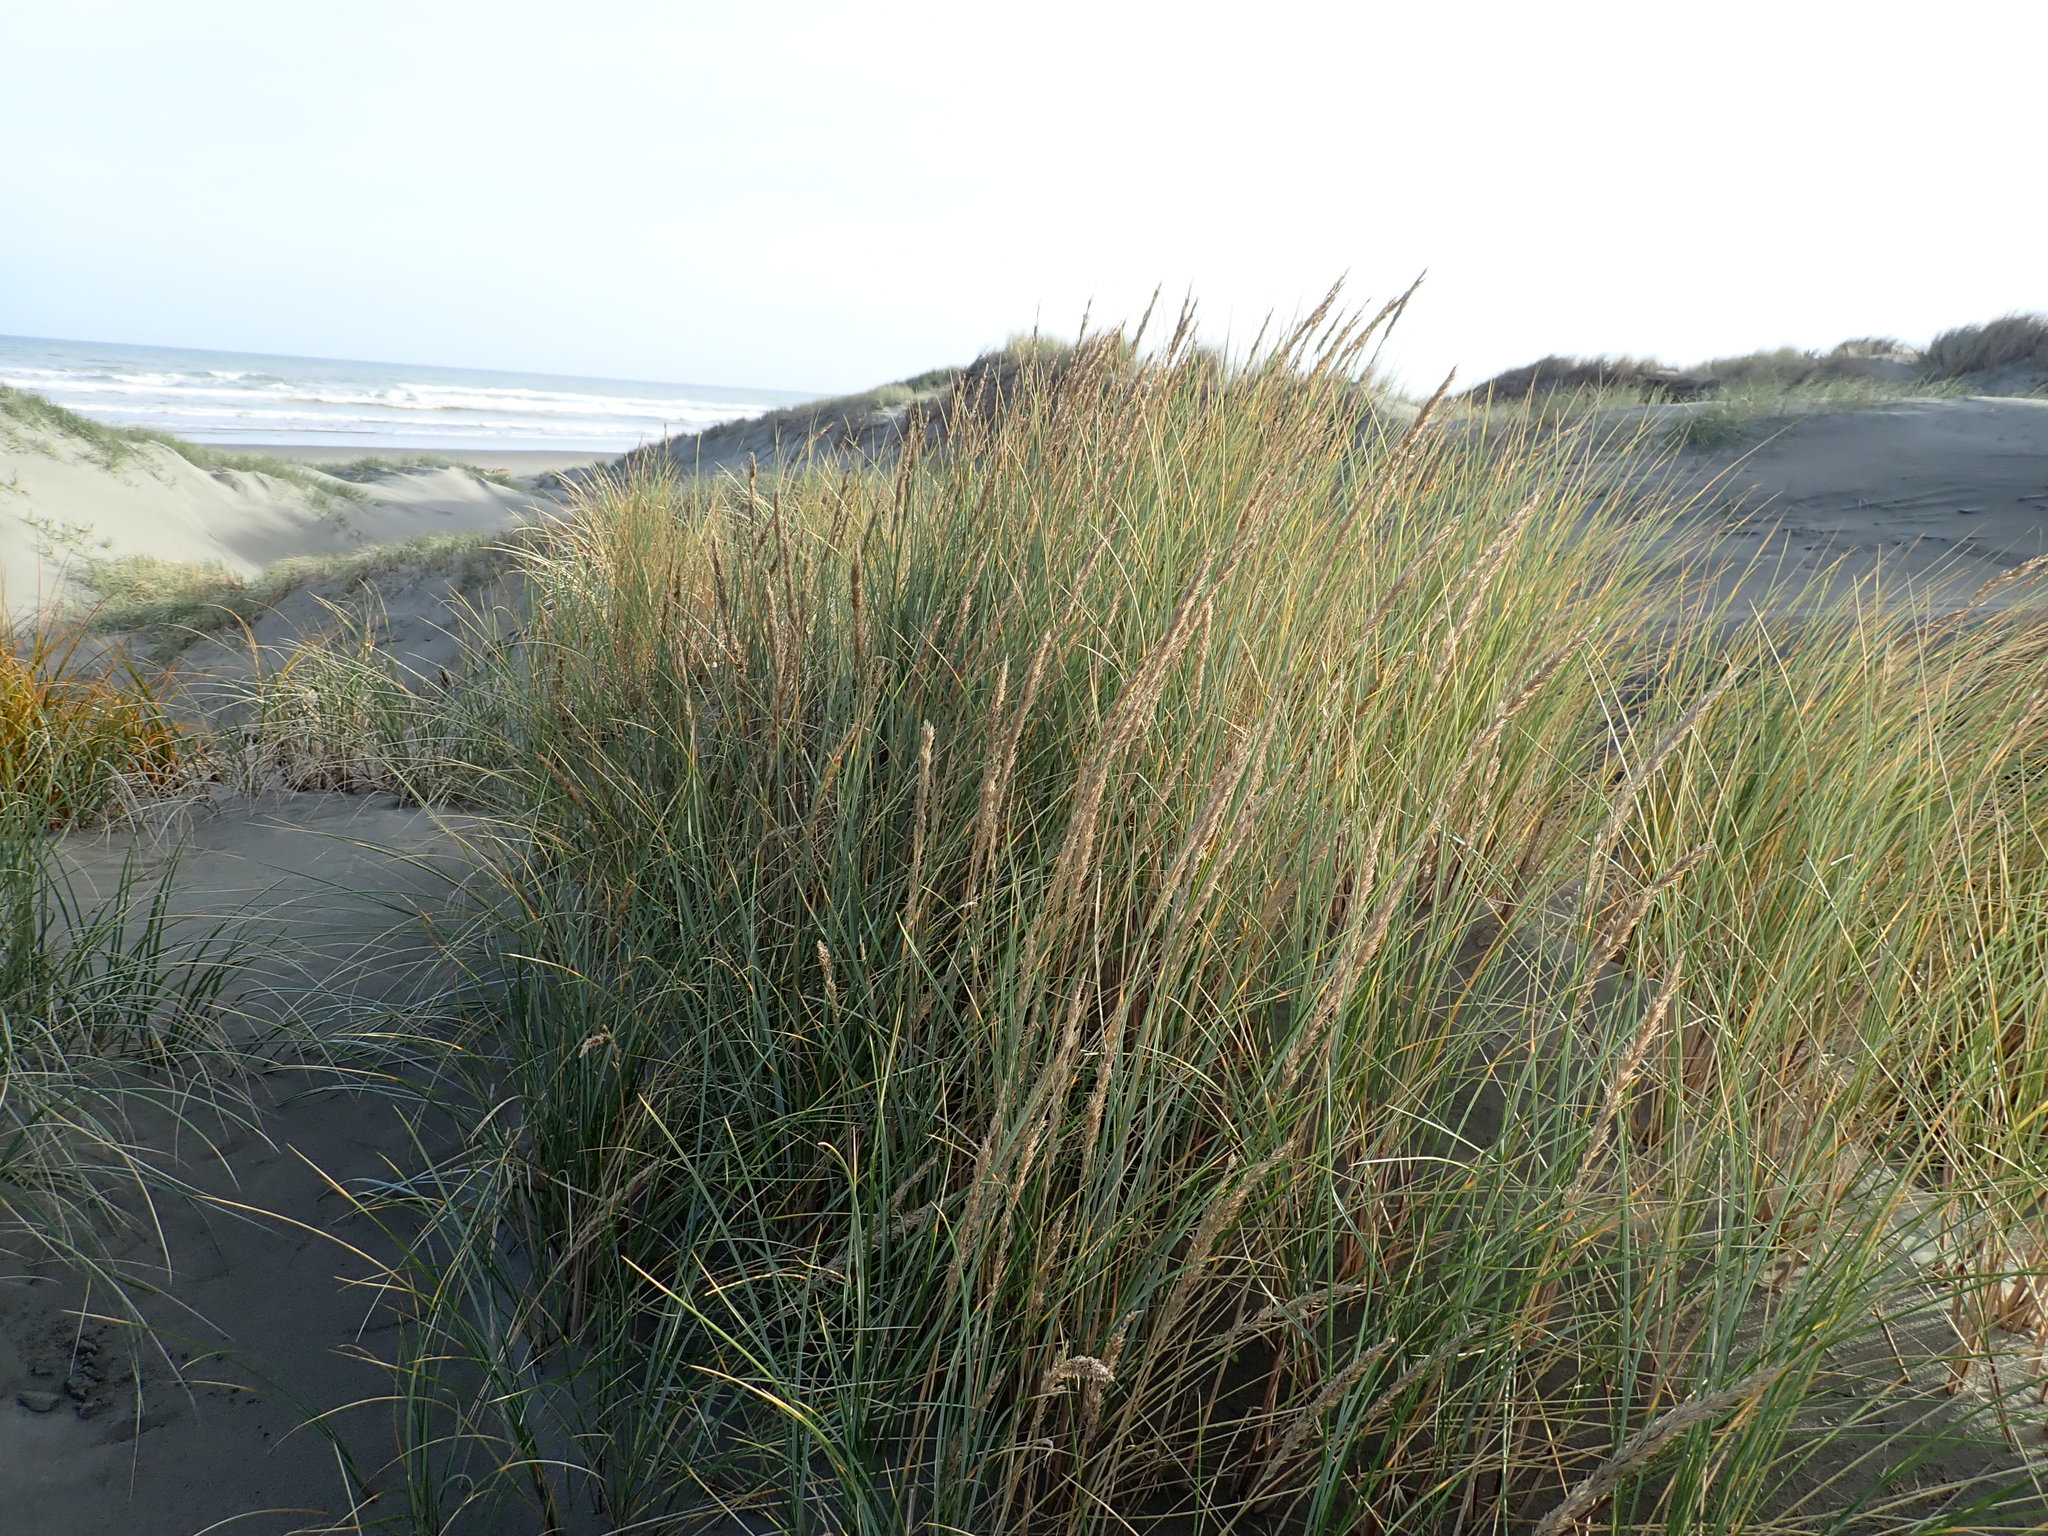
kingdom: Plantae
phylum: Tracheophyta
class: Liliopsida
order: Poales
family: Poaceae
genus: Calamagrostis
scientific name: Calamagrostis arenaria
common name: European beachgrass
